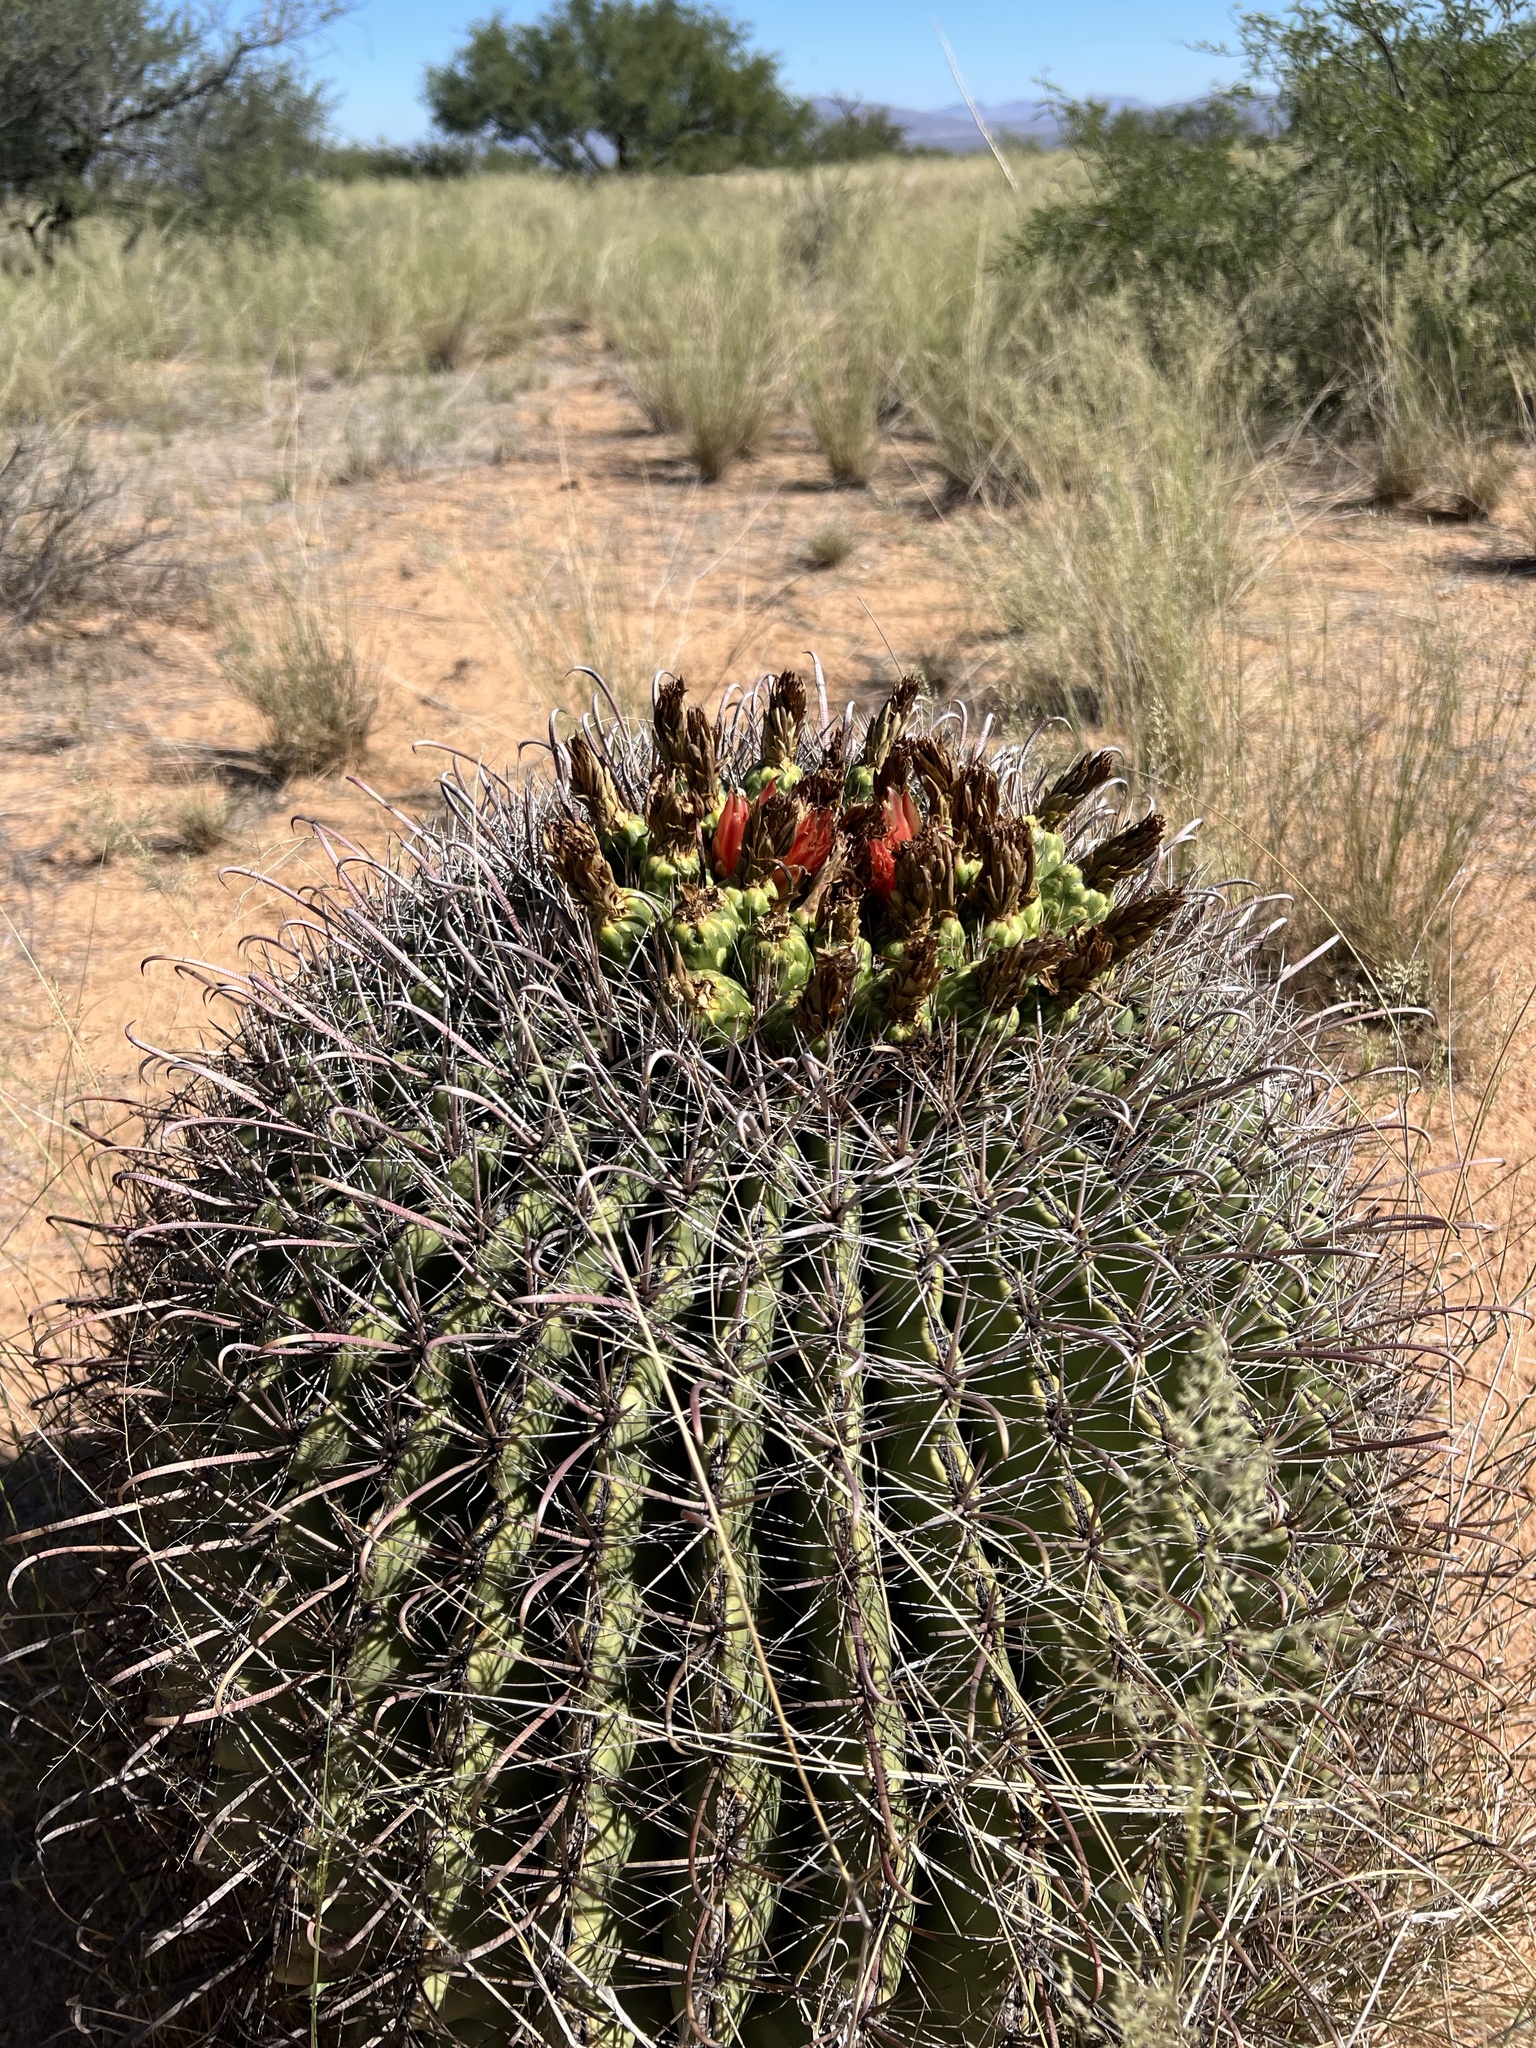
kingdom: Plantae
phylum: Tracheophyta
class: Magnoliopsida
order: Caryophyllales
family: Cactaceae
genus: Ferocactus
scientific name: Ferocactus wislizeni
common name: Candy barrel cactus
